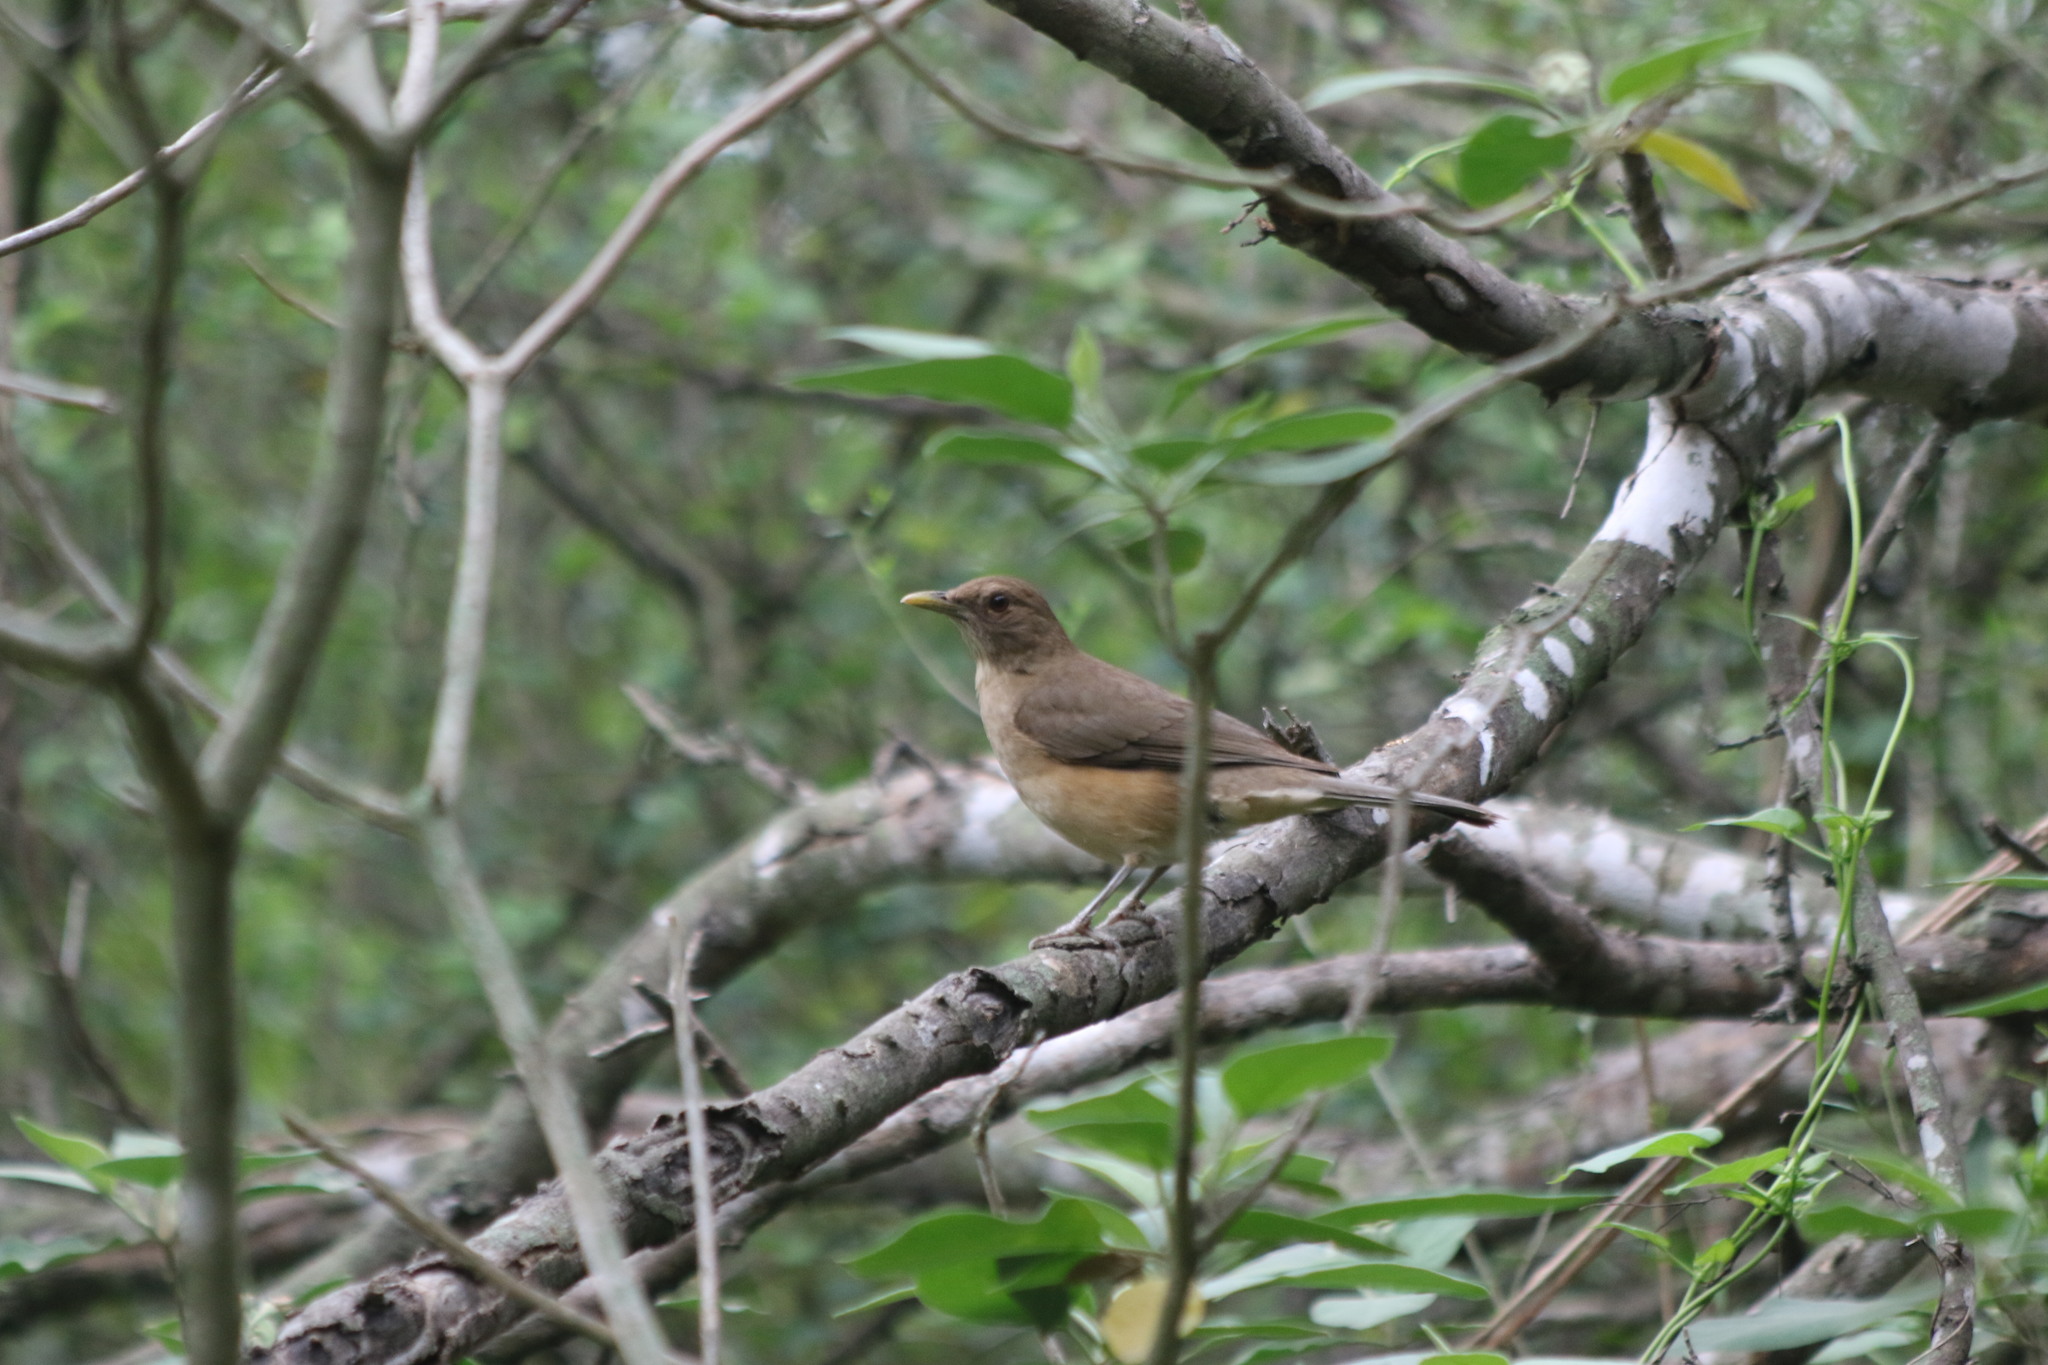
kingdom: Animalia
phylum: Chordata
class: Aves
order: Passeriformes
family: Turdidae
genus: Turdus
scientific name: Turdus grayi
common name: Clay-colored thrush
